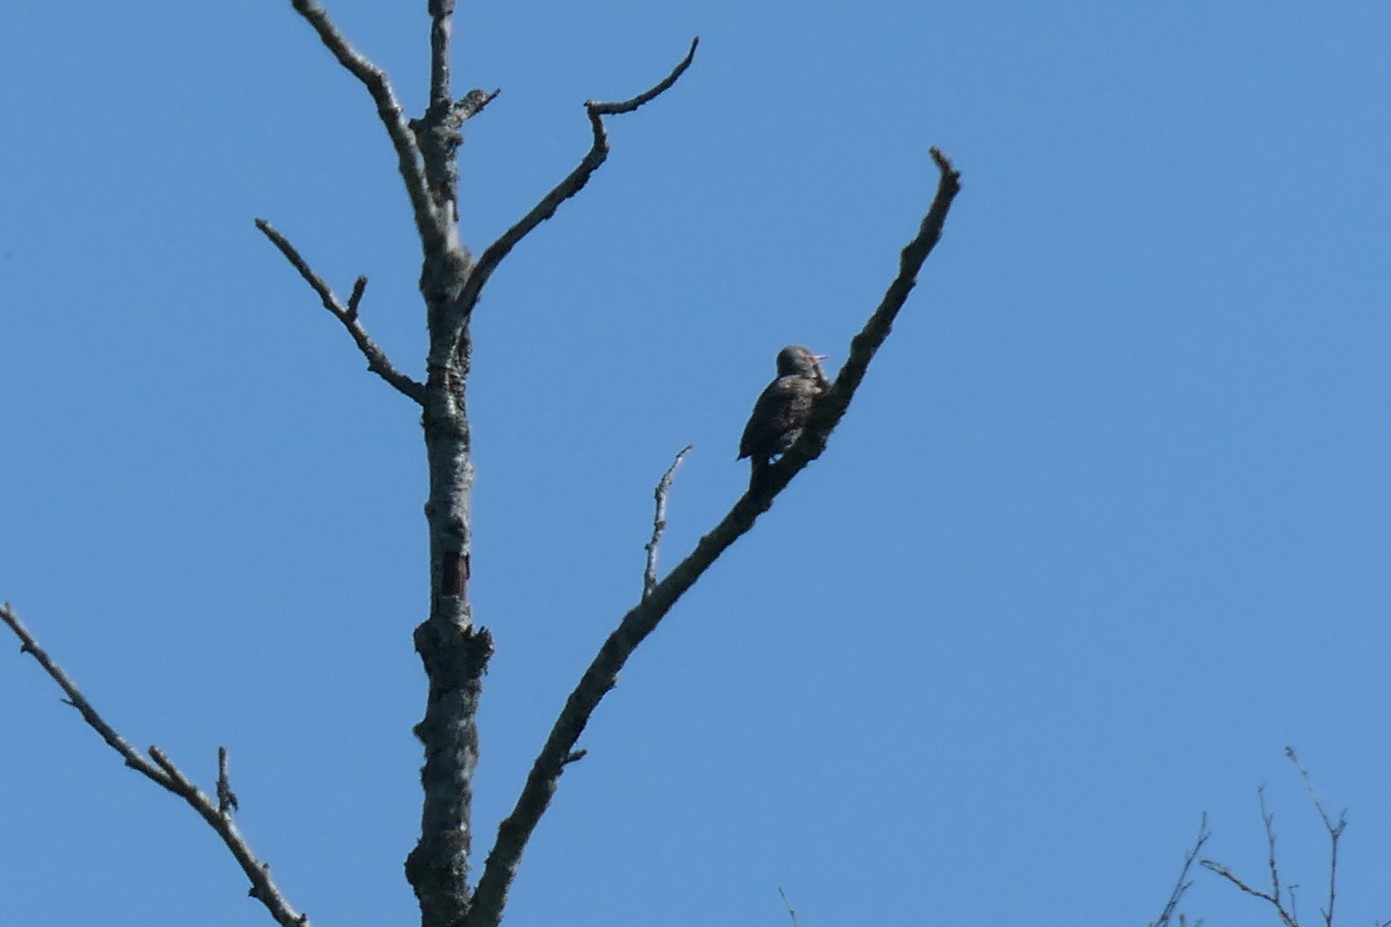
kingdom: Animalia
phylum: Chordata
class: Aves
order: Piciformes
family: Picidae
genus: Colaptes
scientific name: Colaptes auratus
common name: Northern flicker
